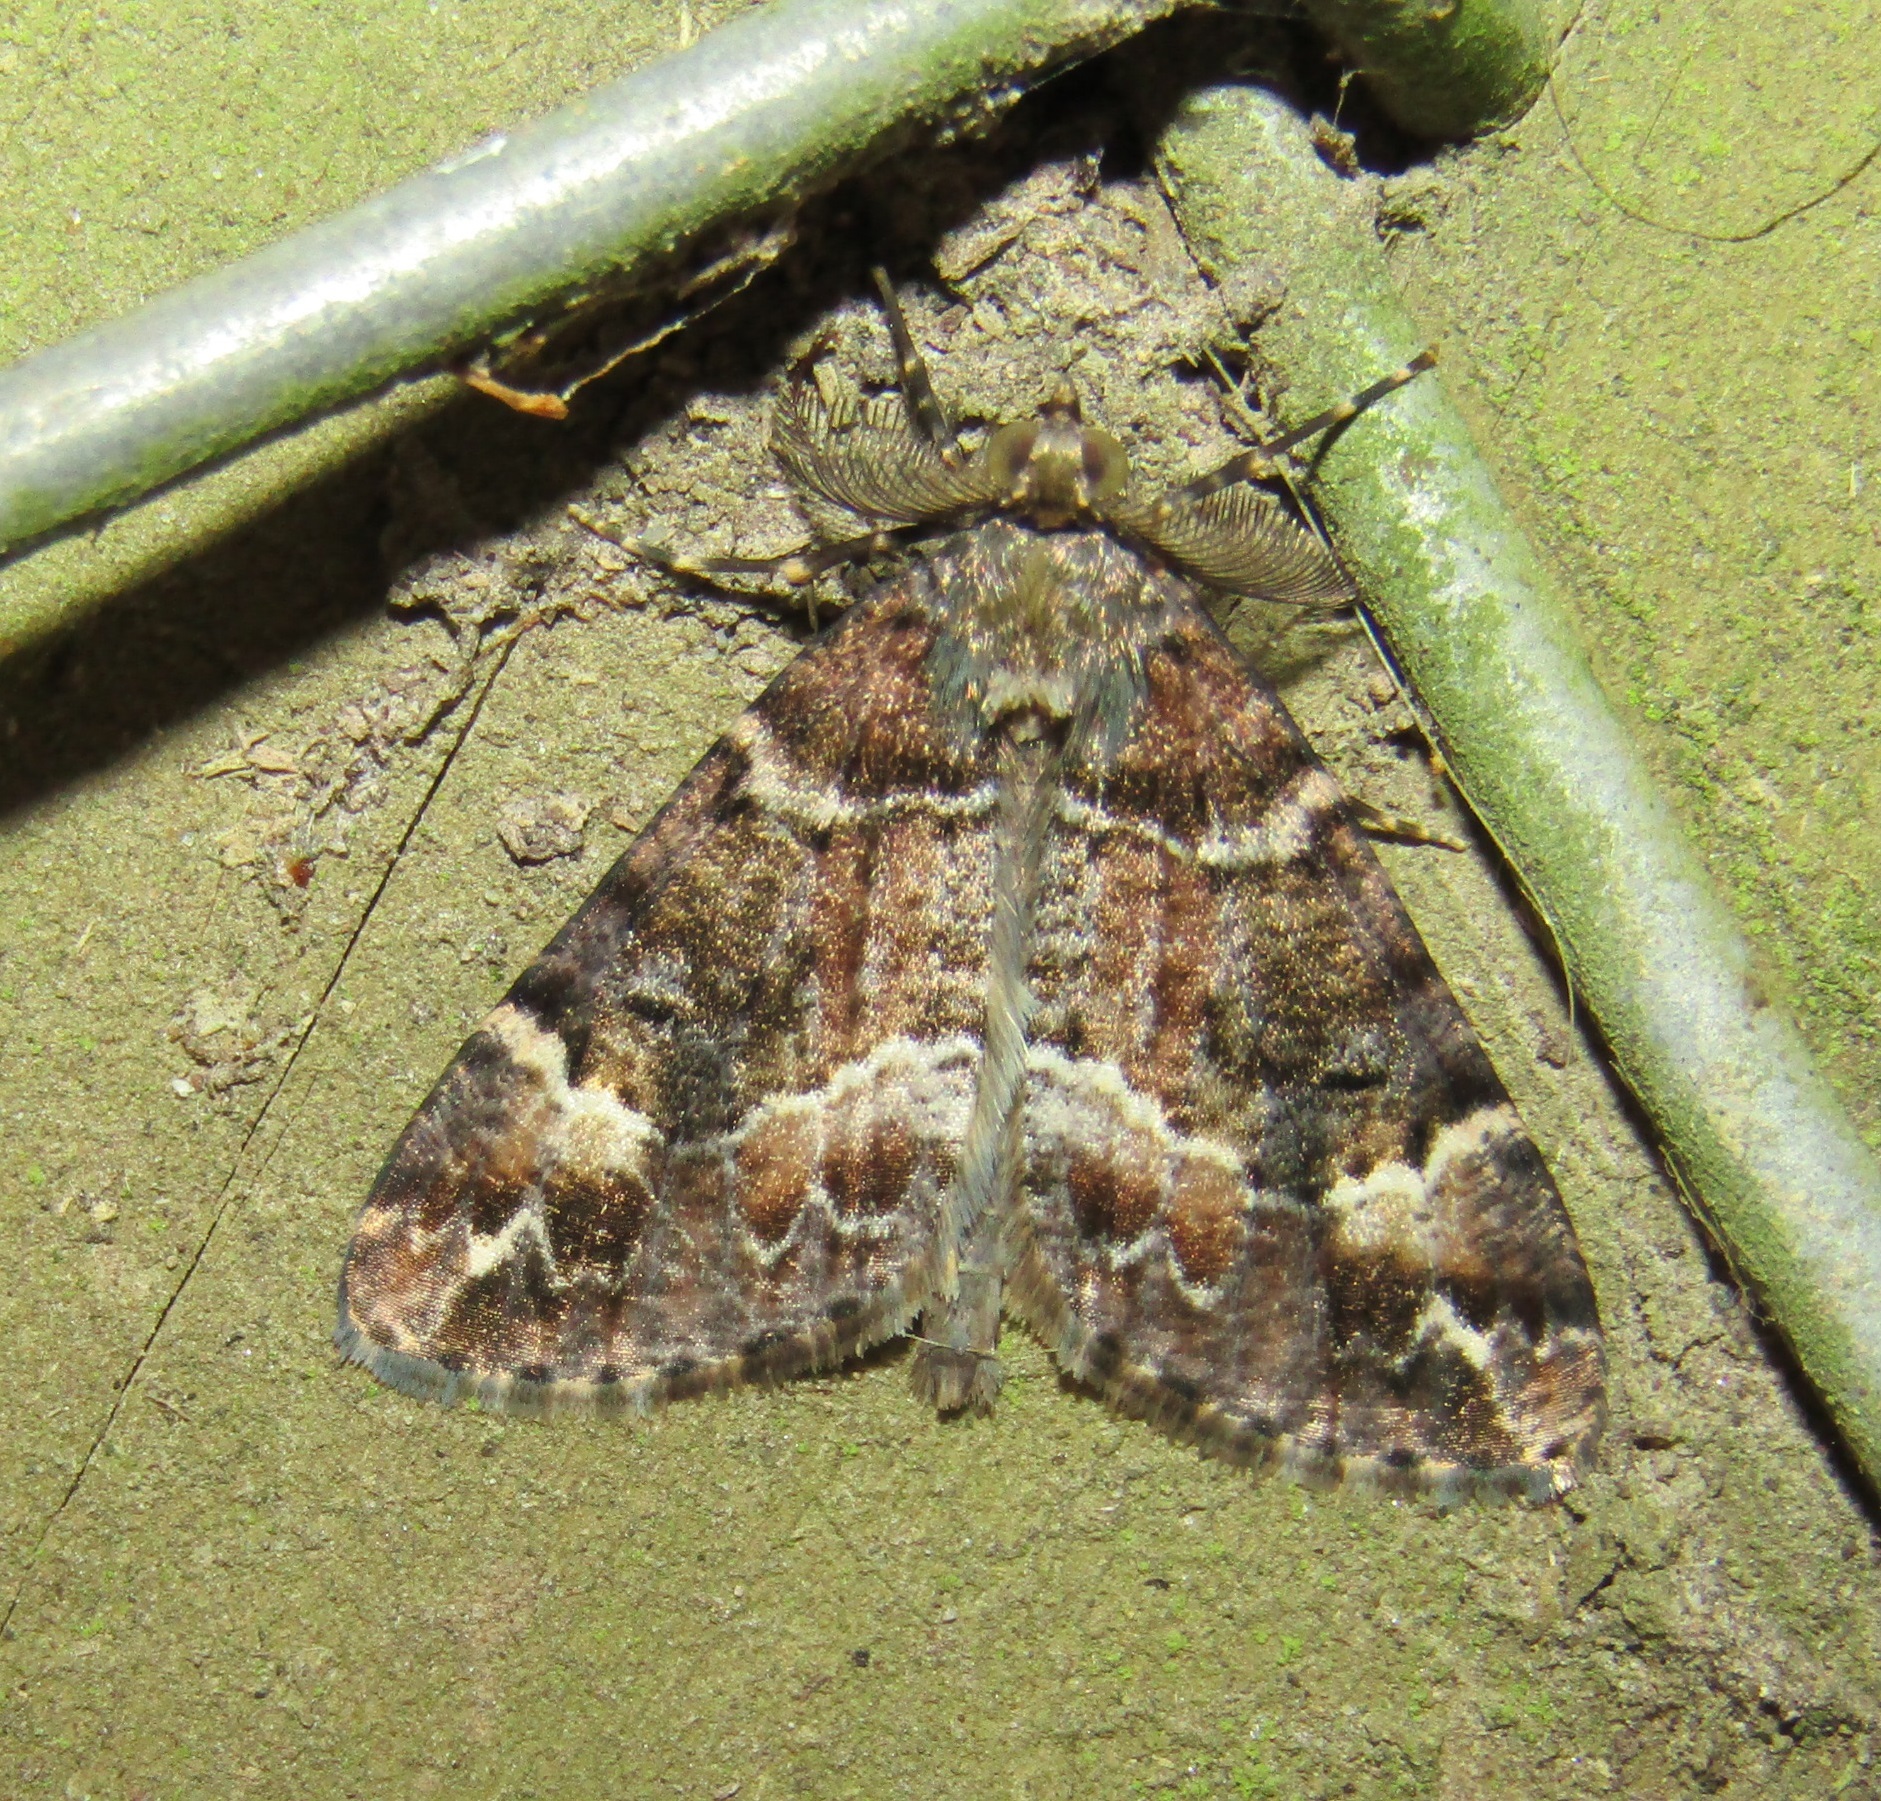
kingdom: Animalia
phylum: Arthropoda
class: Insecta
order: Lepidoptera
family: Geometridae
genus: Pseudocoremia
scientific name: Pseudocoremia productata
